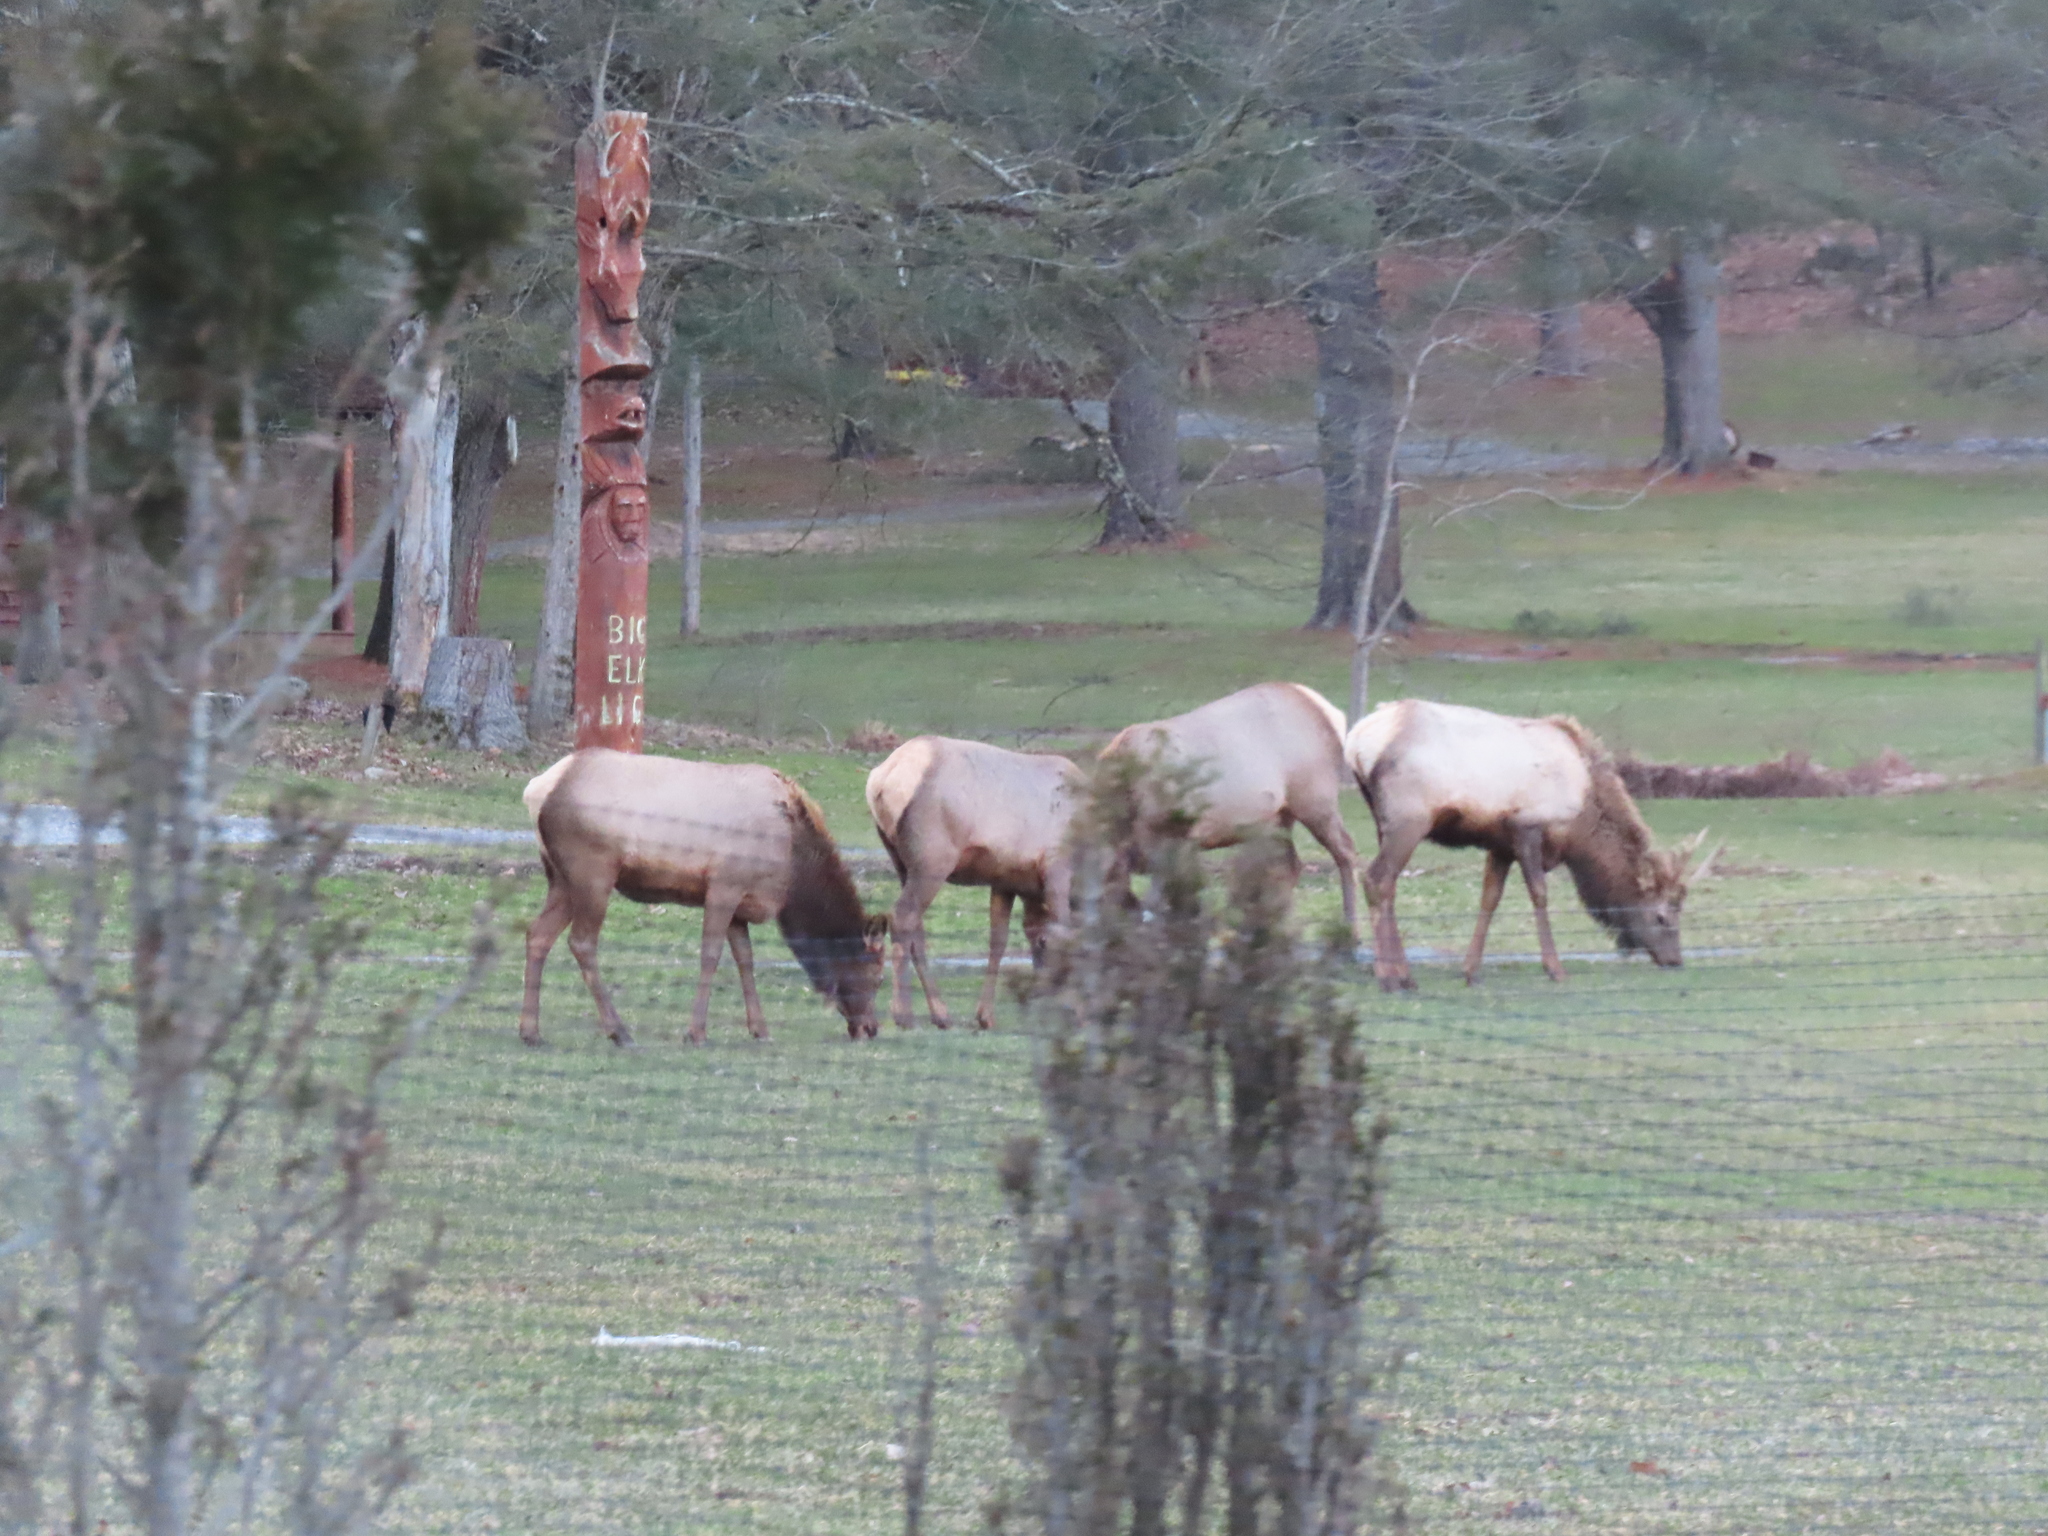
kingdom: Animalia
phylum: Chordata
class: Mammalia
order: Artiodactyla
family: Cervidae
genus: Cervus
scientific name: Cervus elaphus
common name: Red deer
